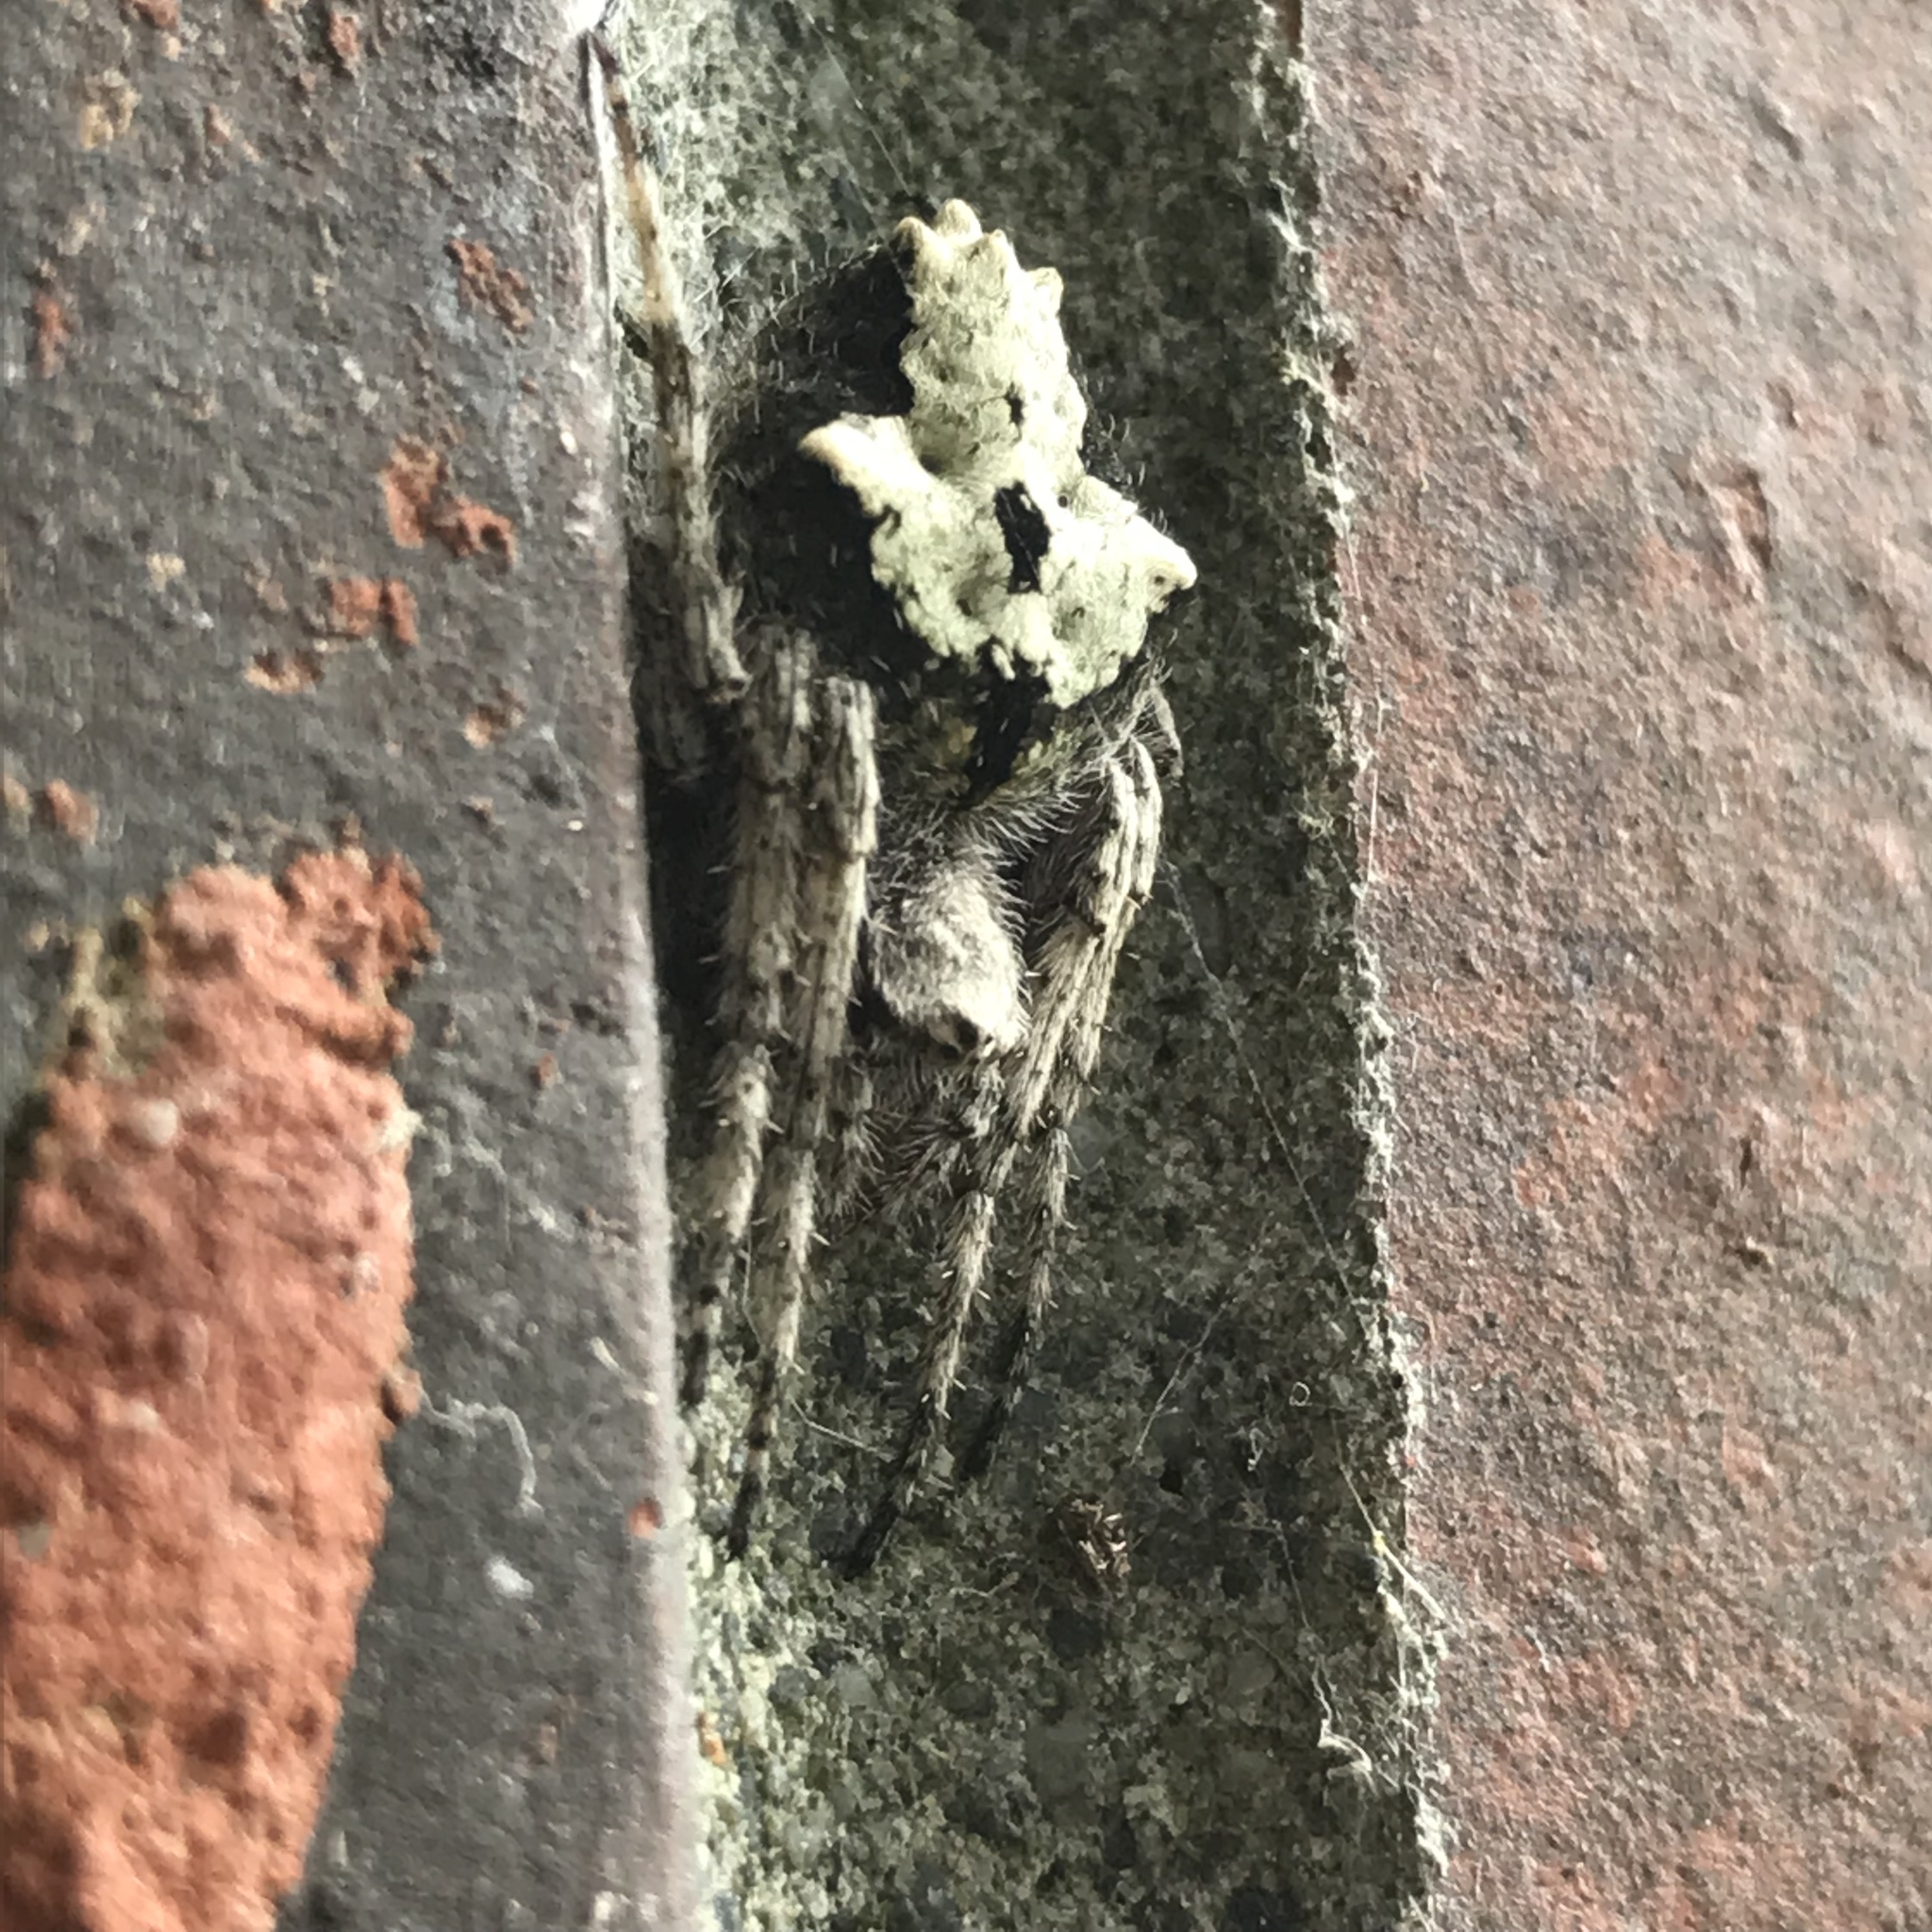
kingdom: Animalia
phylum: Arthropoda
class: Arachnida
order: Araneae
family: Araneidae
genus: Eriophora
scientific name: Eriophora pustulosa
